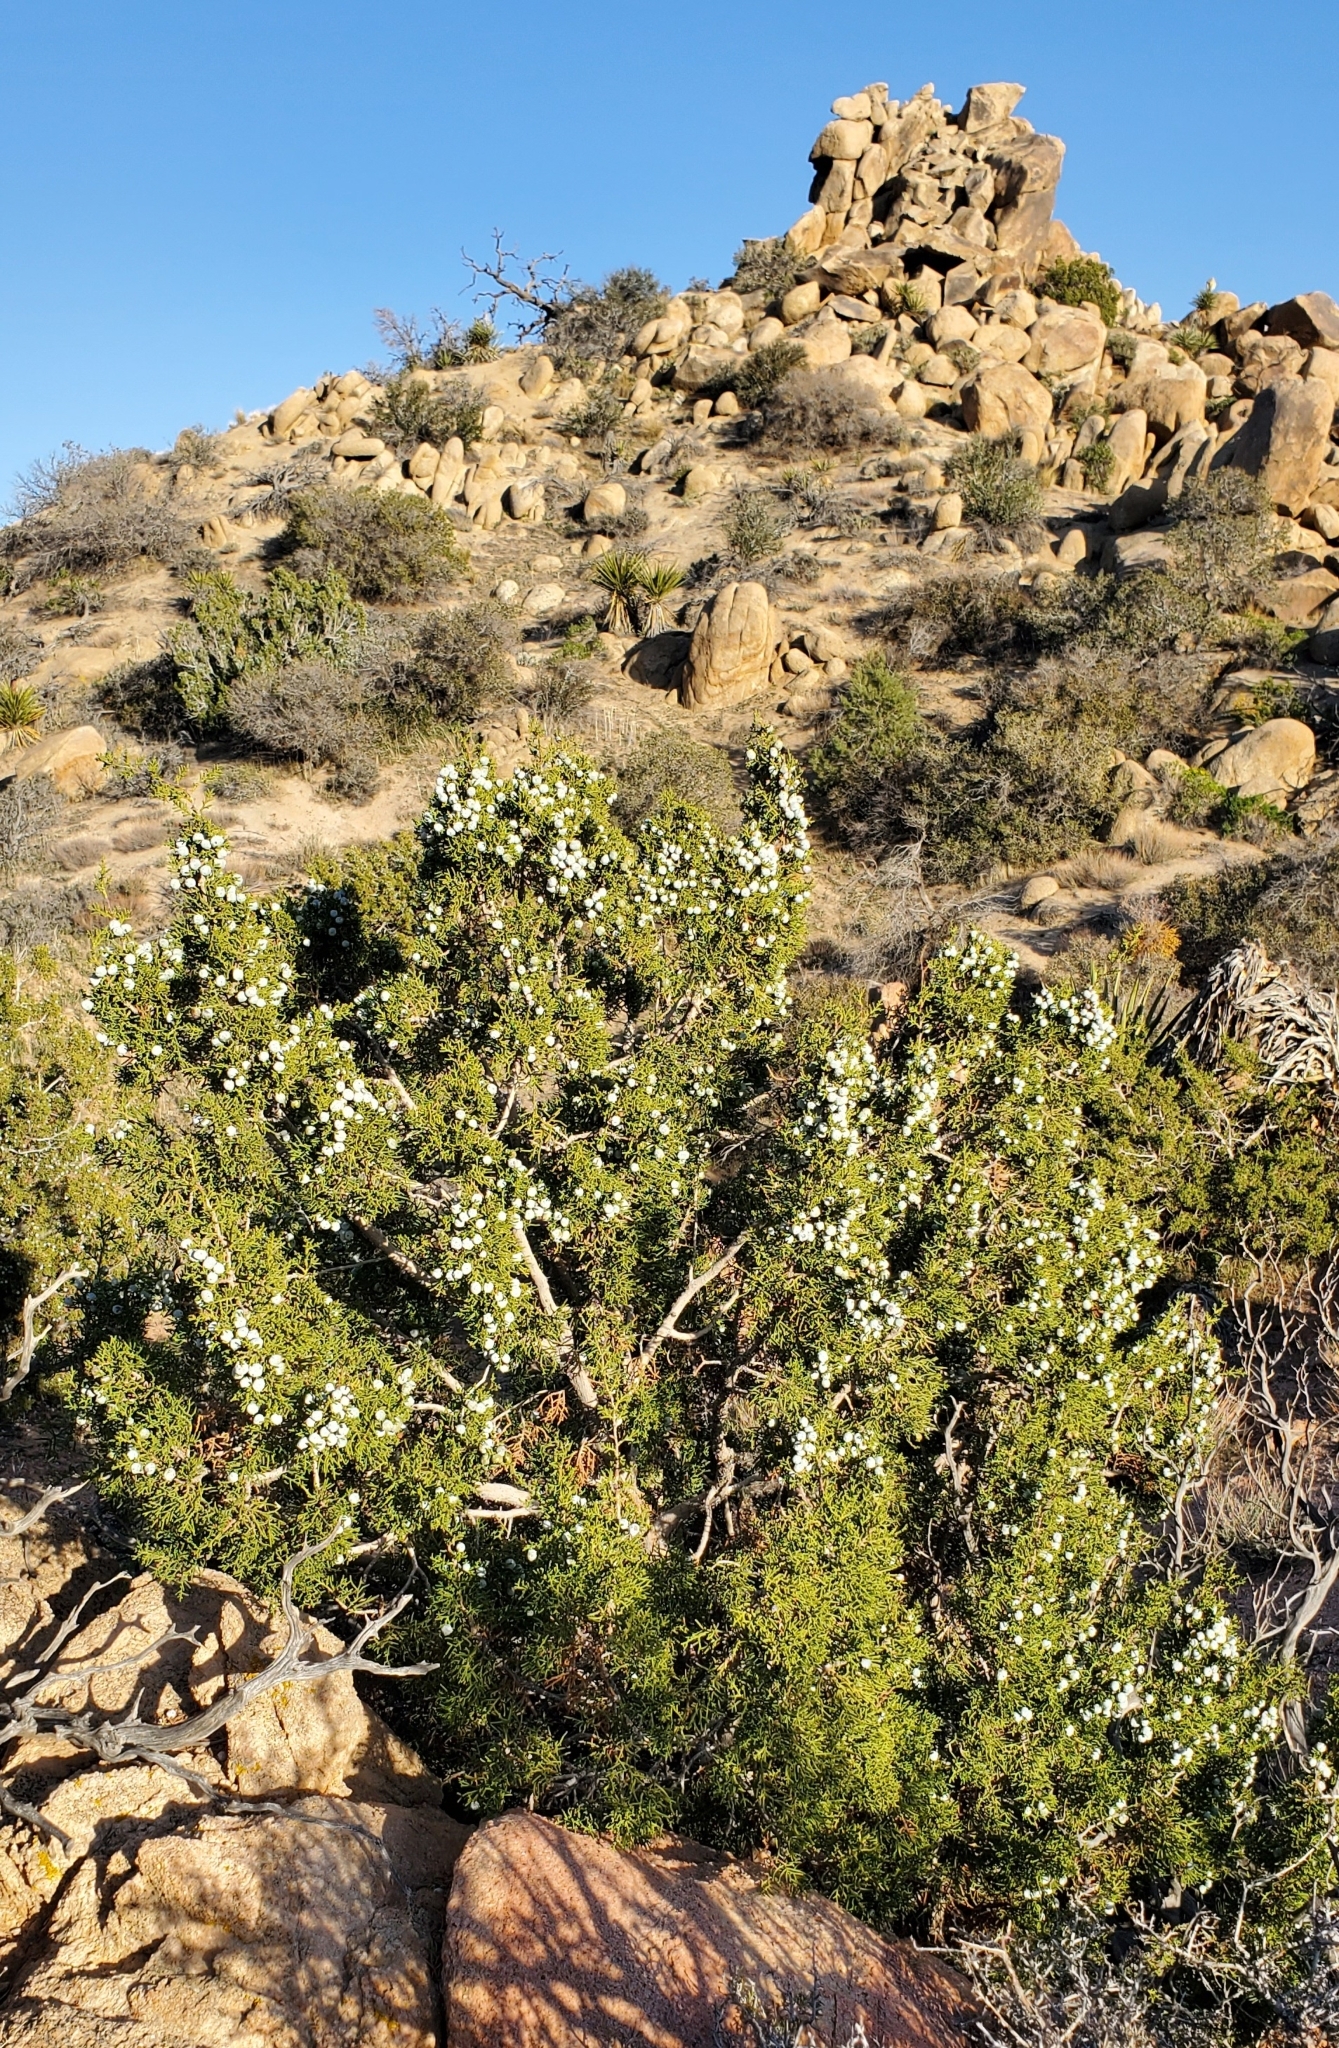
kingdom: Plantae
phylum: Tracheophyta
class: Pinopsida
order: Pinales
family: Cupressaceae
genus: Juniperus
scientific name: Juniperus californica
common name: California juniper
